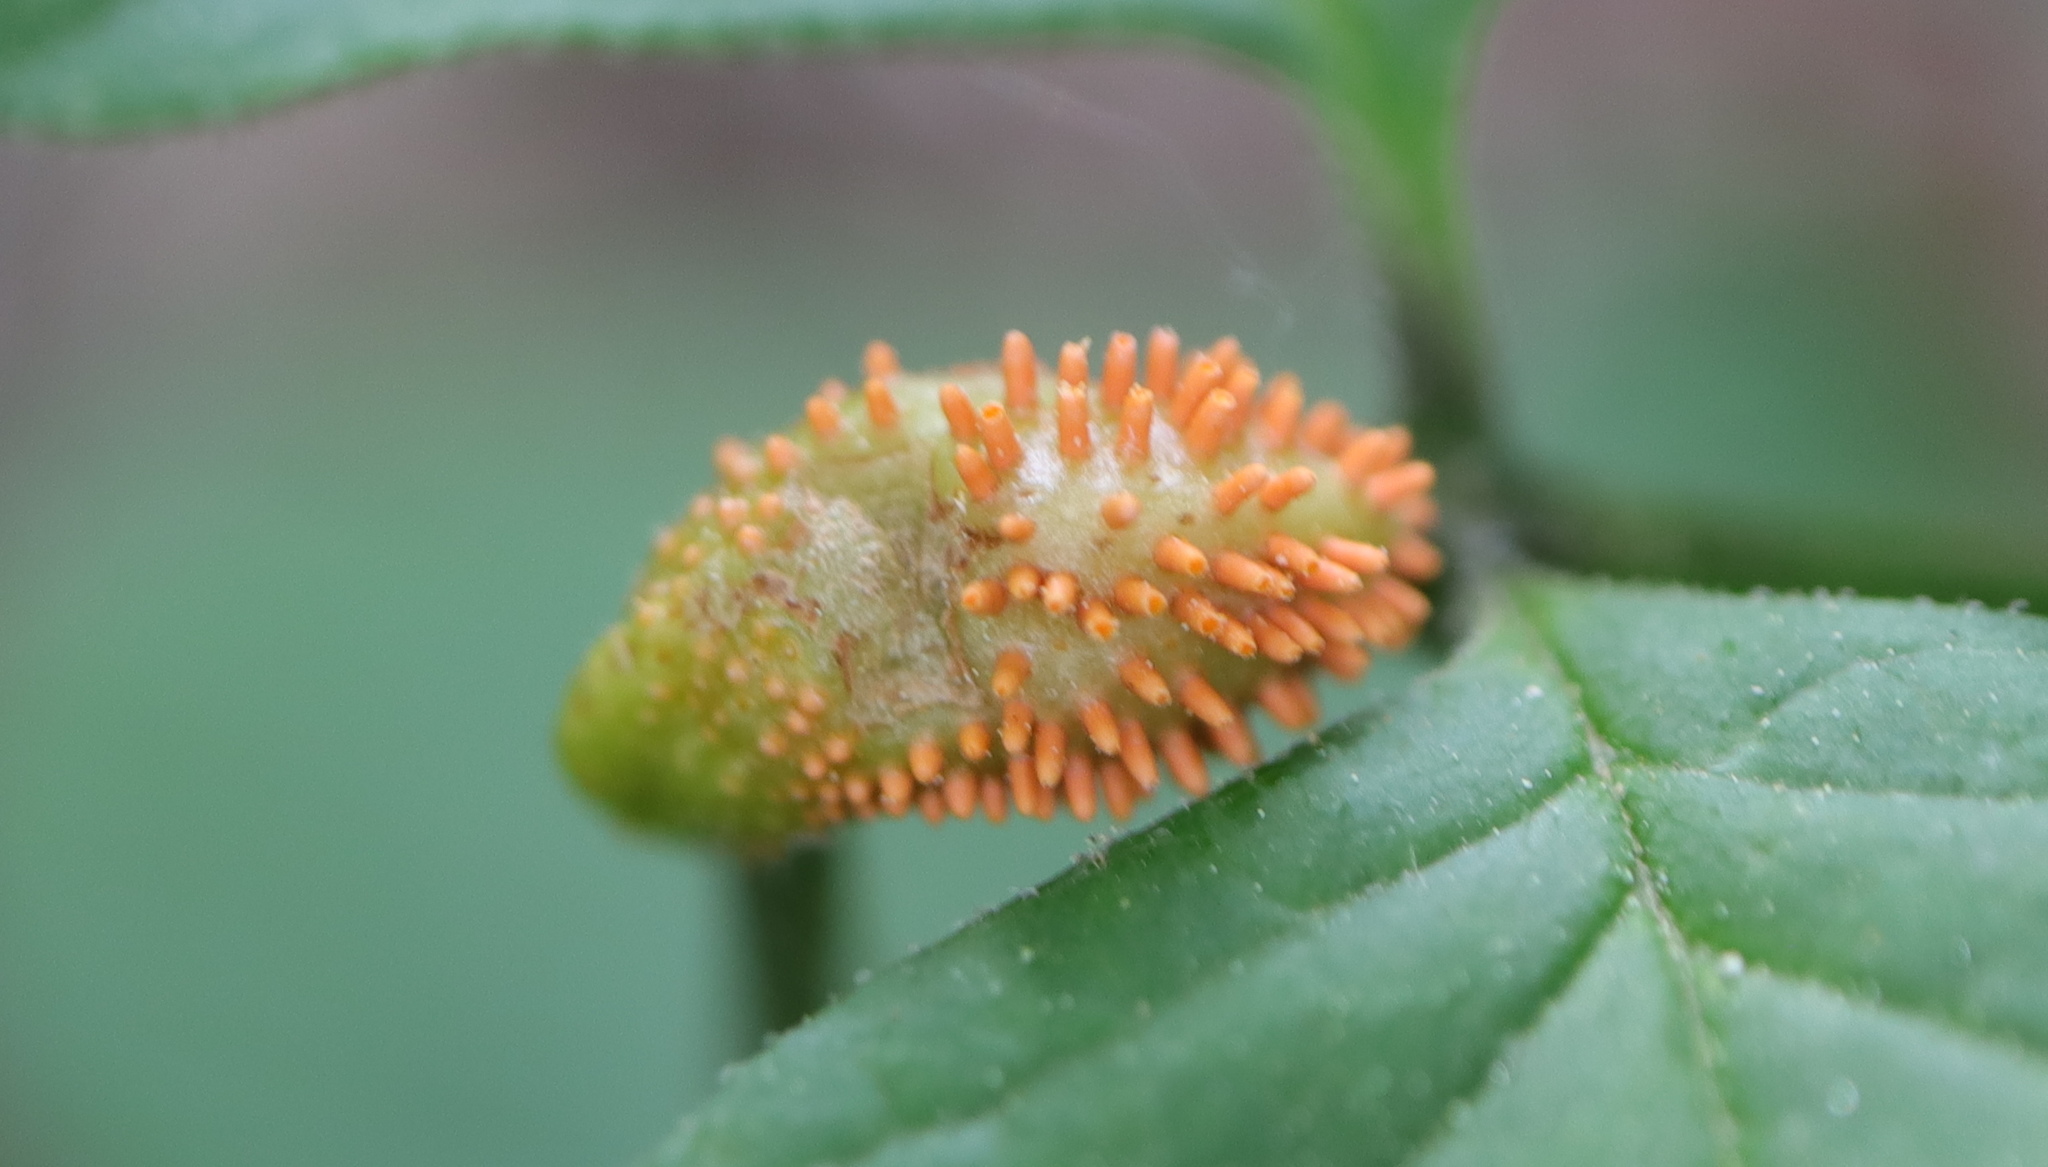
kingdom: Fungi
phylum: Basidiomycota
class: Pucciniomycetes
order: Pucciniales
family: Pucciniaceae
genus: Puccinia
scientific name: Puccinia sparganioidis
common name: Ash rust
